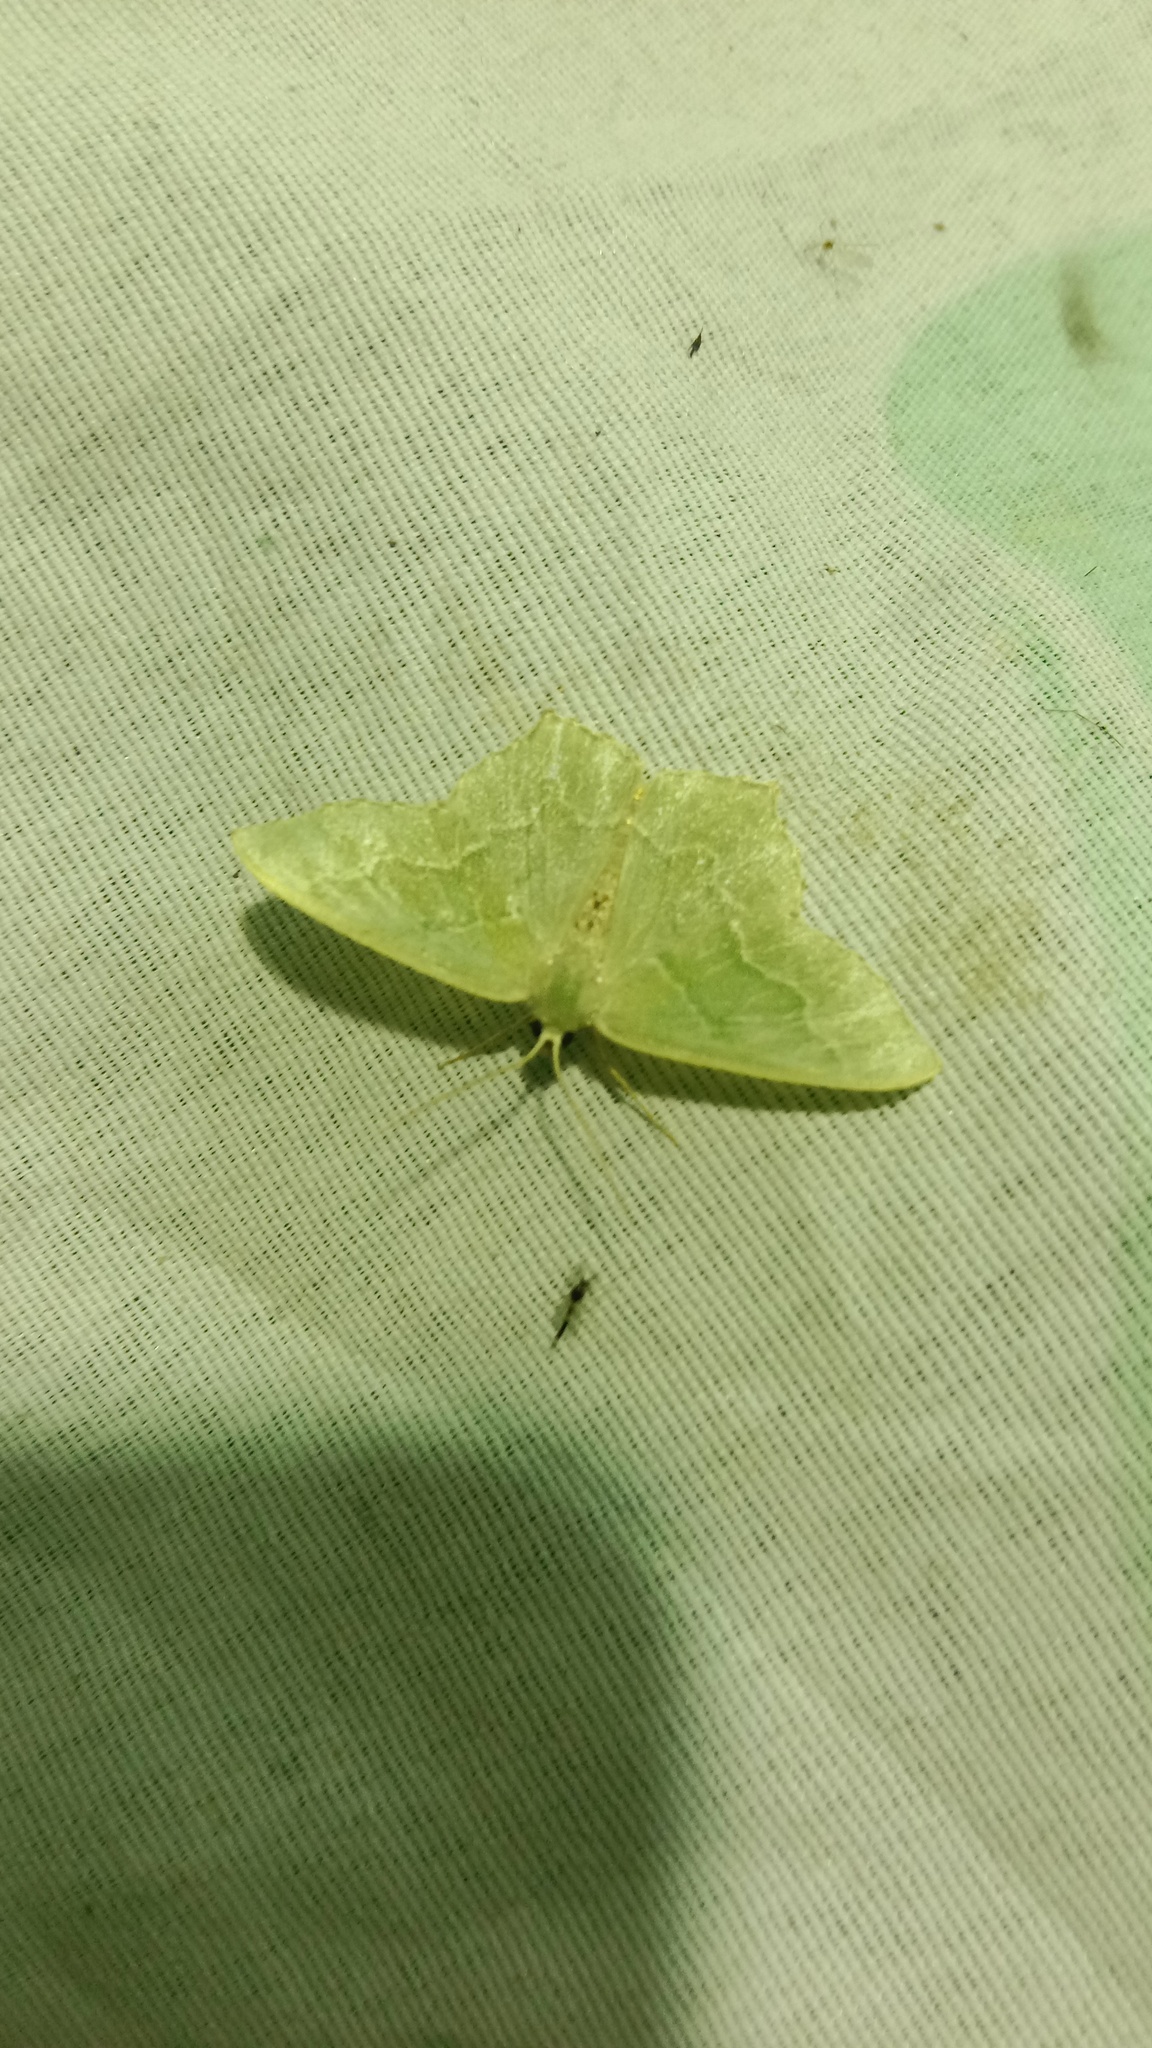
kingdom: Animalia
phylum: Arthropoda
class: Insecta
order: Lepidoptera
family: Geometridae
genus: Hemithea
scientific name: Hemithea aestivaria
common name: Common emerald
